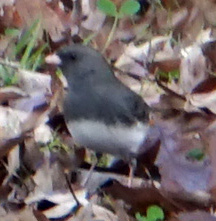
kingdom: Animalia
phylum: Chordata
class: Aves
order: Passeriformes
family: Passerellidae
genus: Junco
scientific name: Junco hyemalis
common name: Dark-eyed junco
